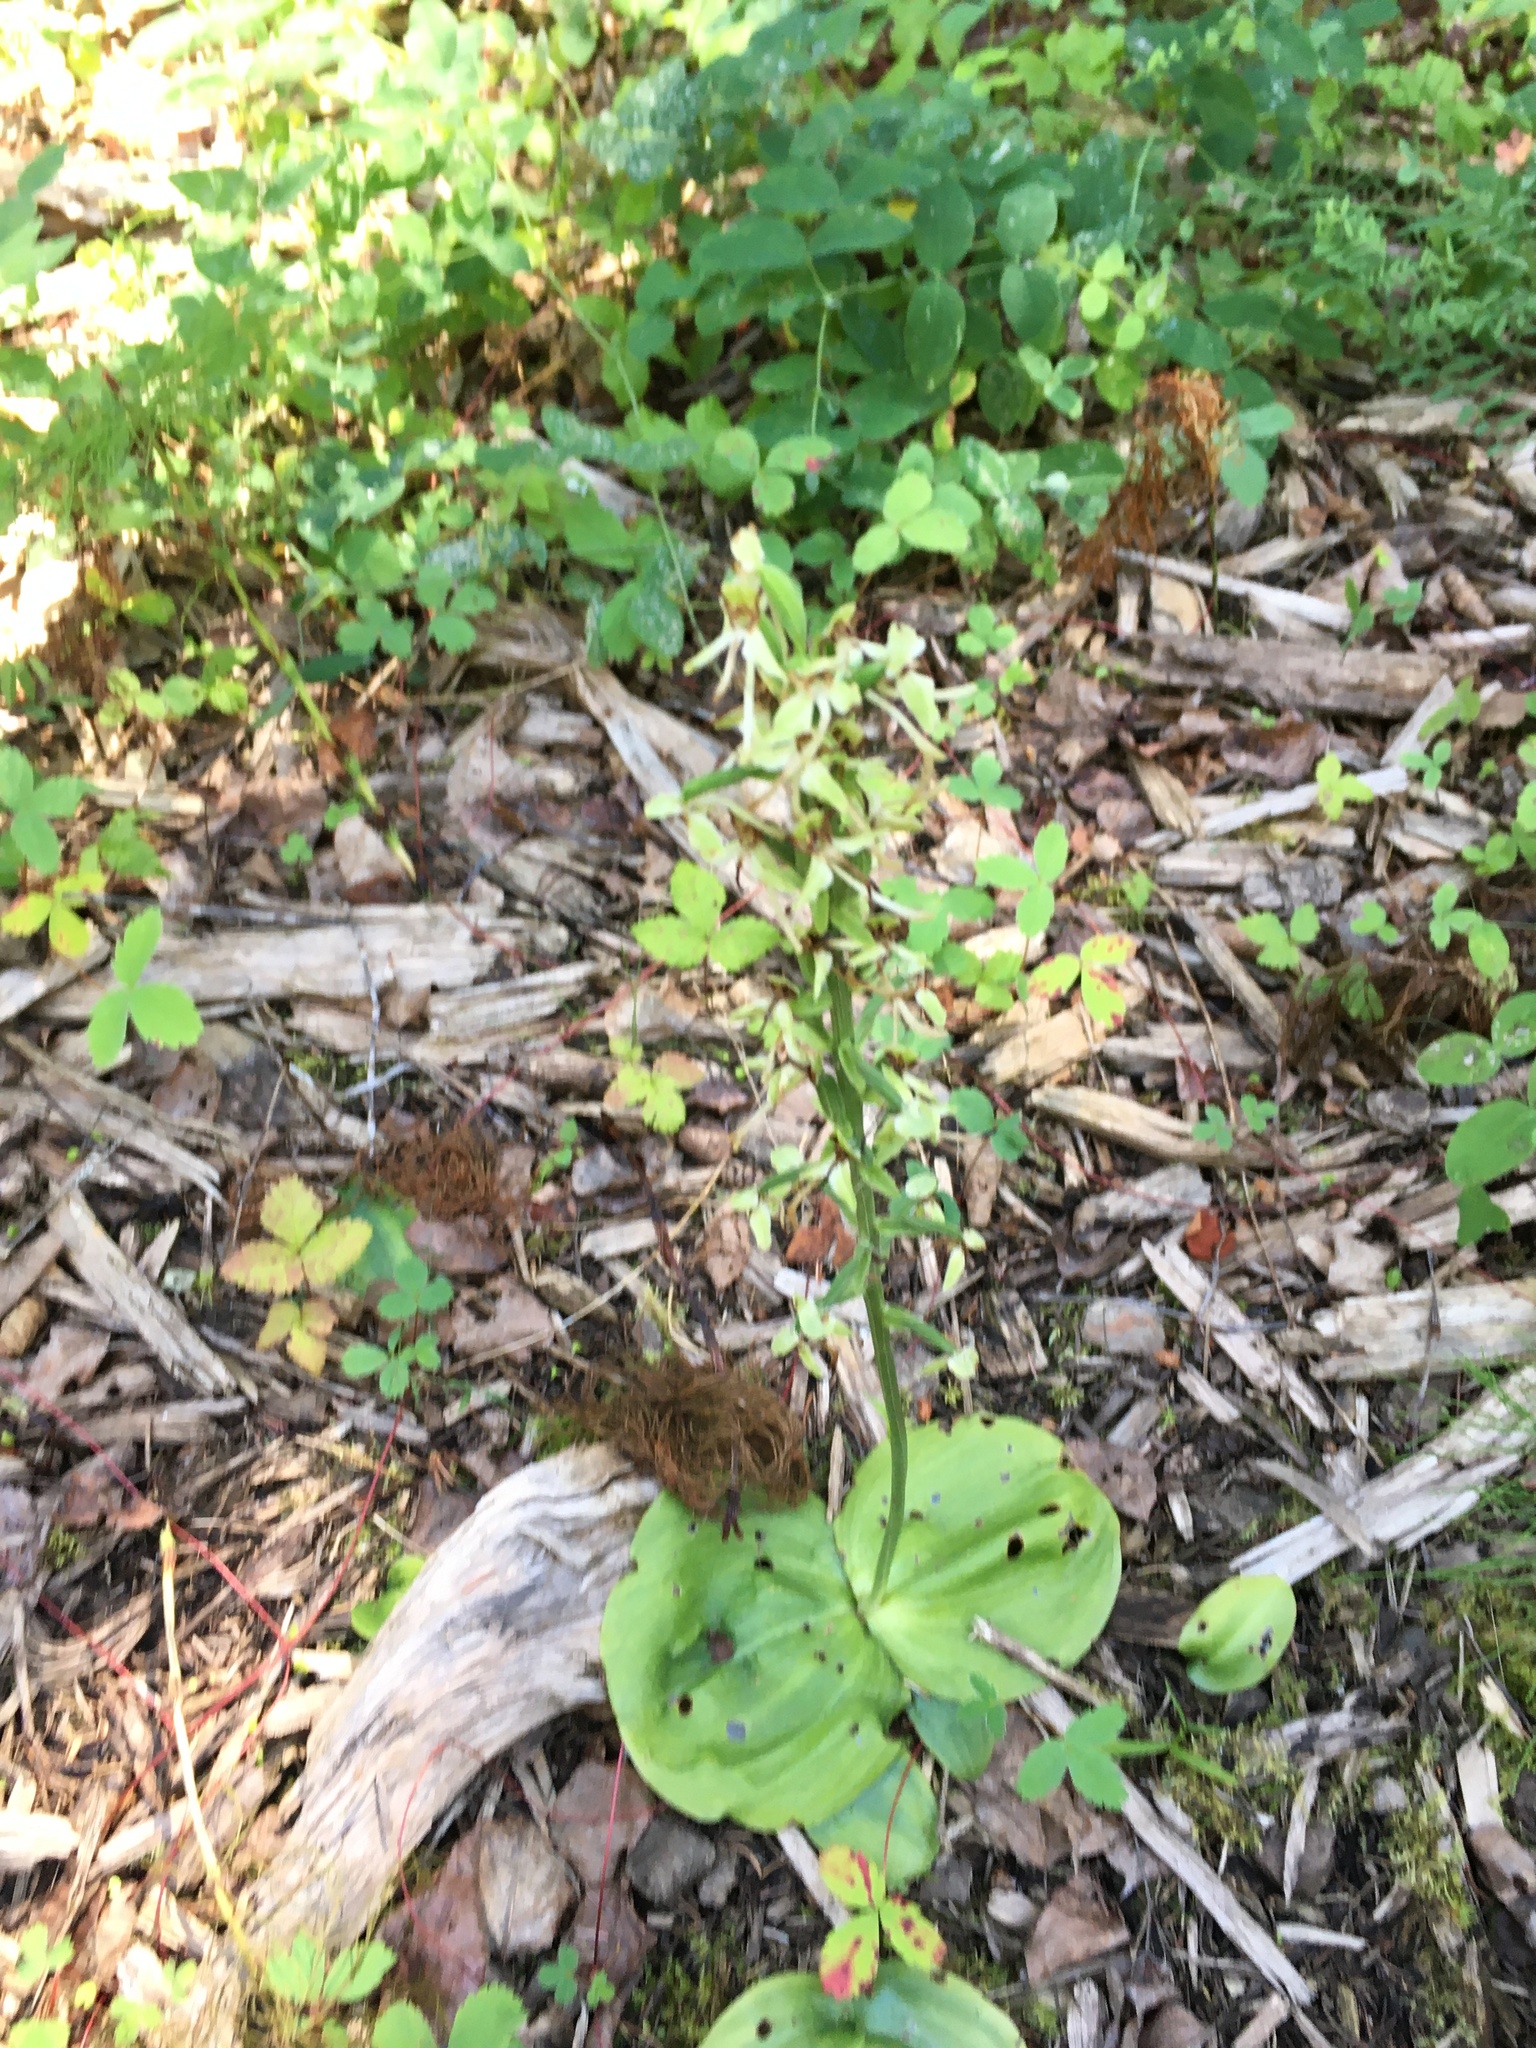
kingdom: Plantae
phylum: Tracheophyta
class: Liliopsida
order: Asparagales
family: Orchidaceae
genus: Platanthera
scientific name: Platanthera orbiculata
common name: Large round-leaved orchid
